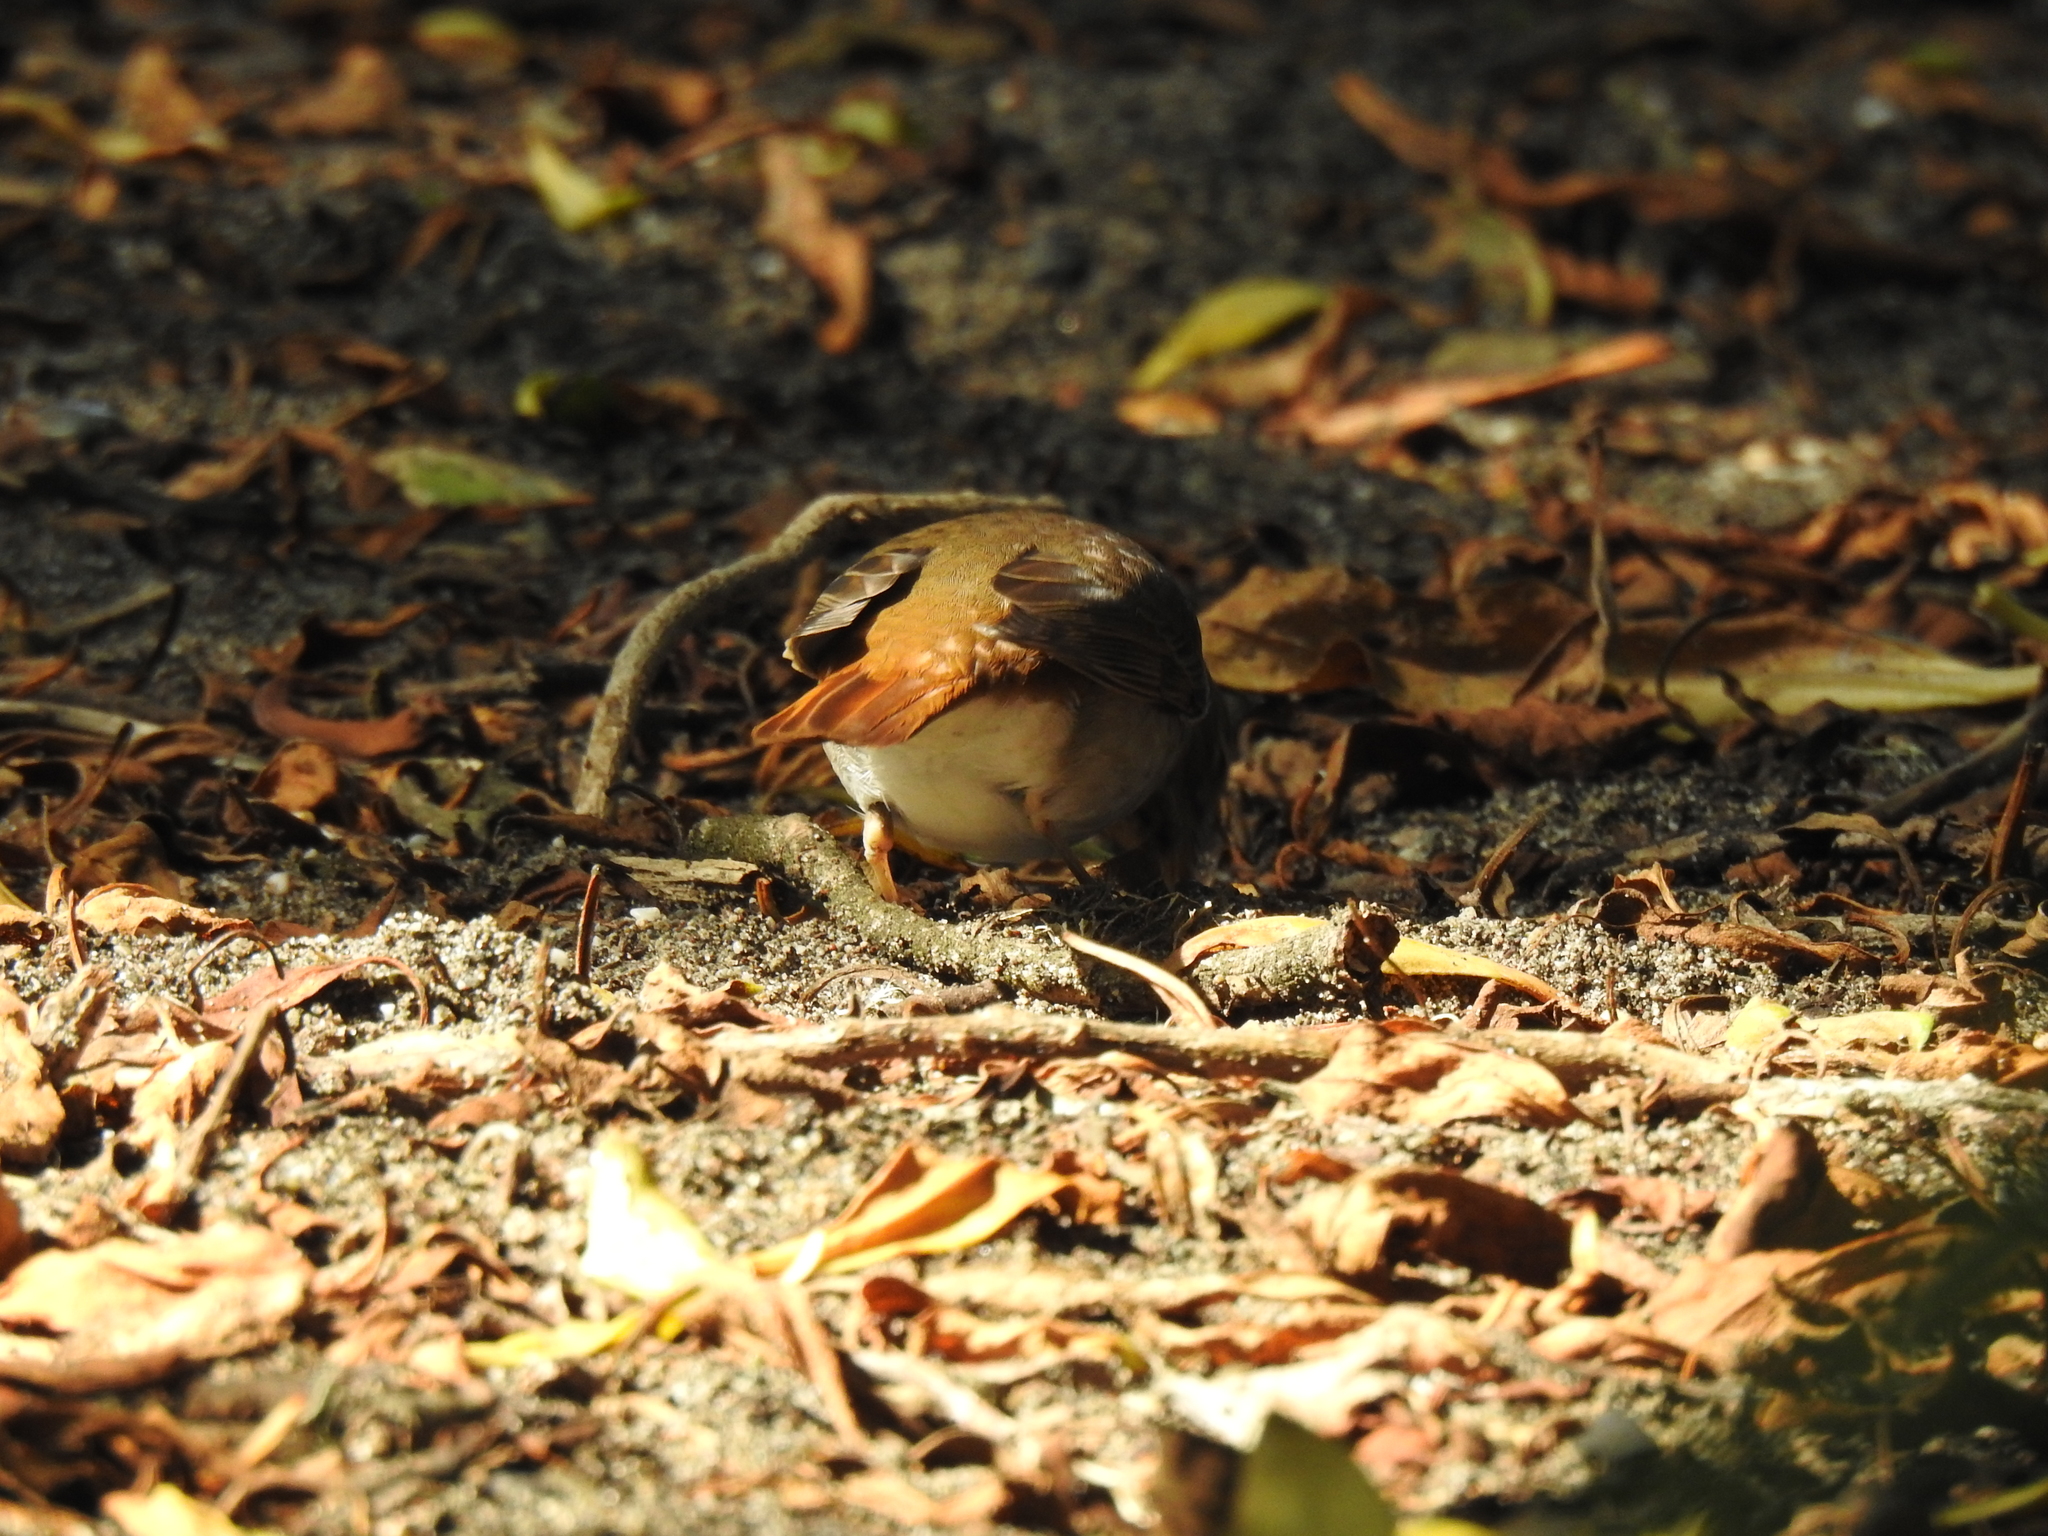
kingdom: Animalia
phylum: Chordata
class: Aves
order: Passeriformes
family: Turdidae
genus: Catharus
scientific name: Catharus guttatus
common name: Hermit thrush
